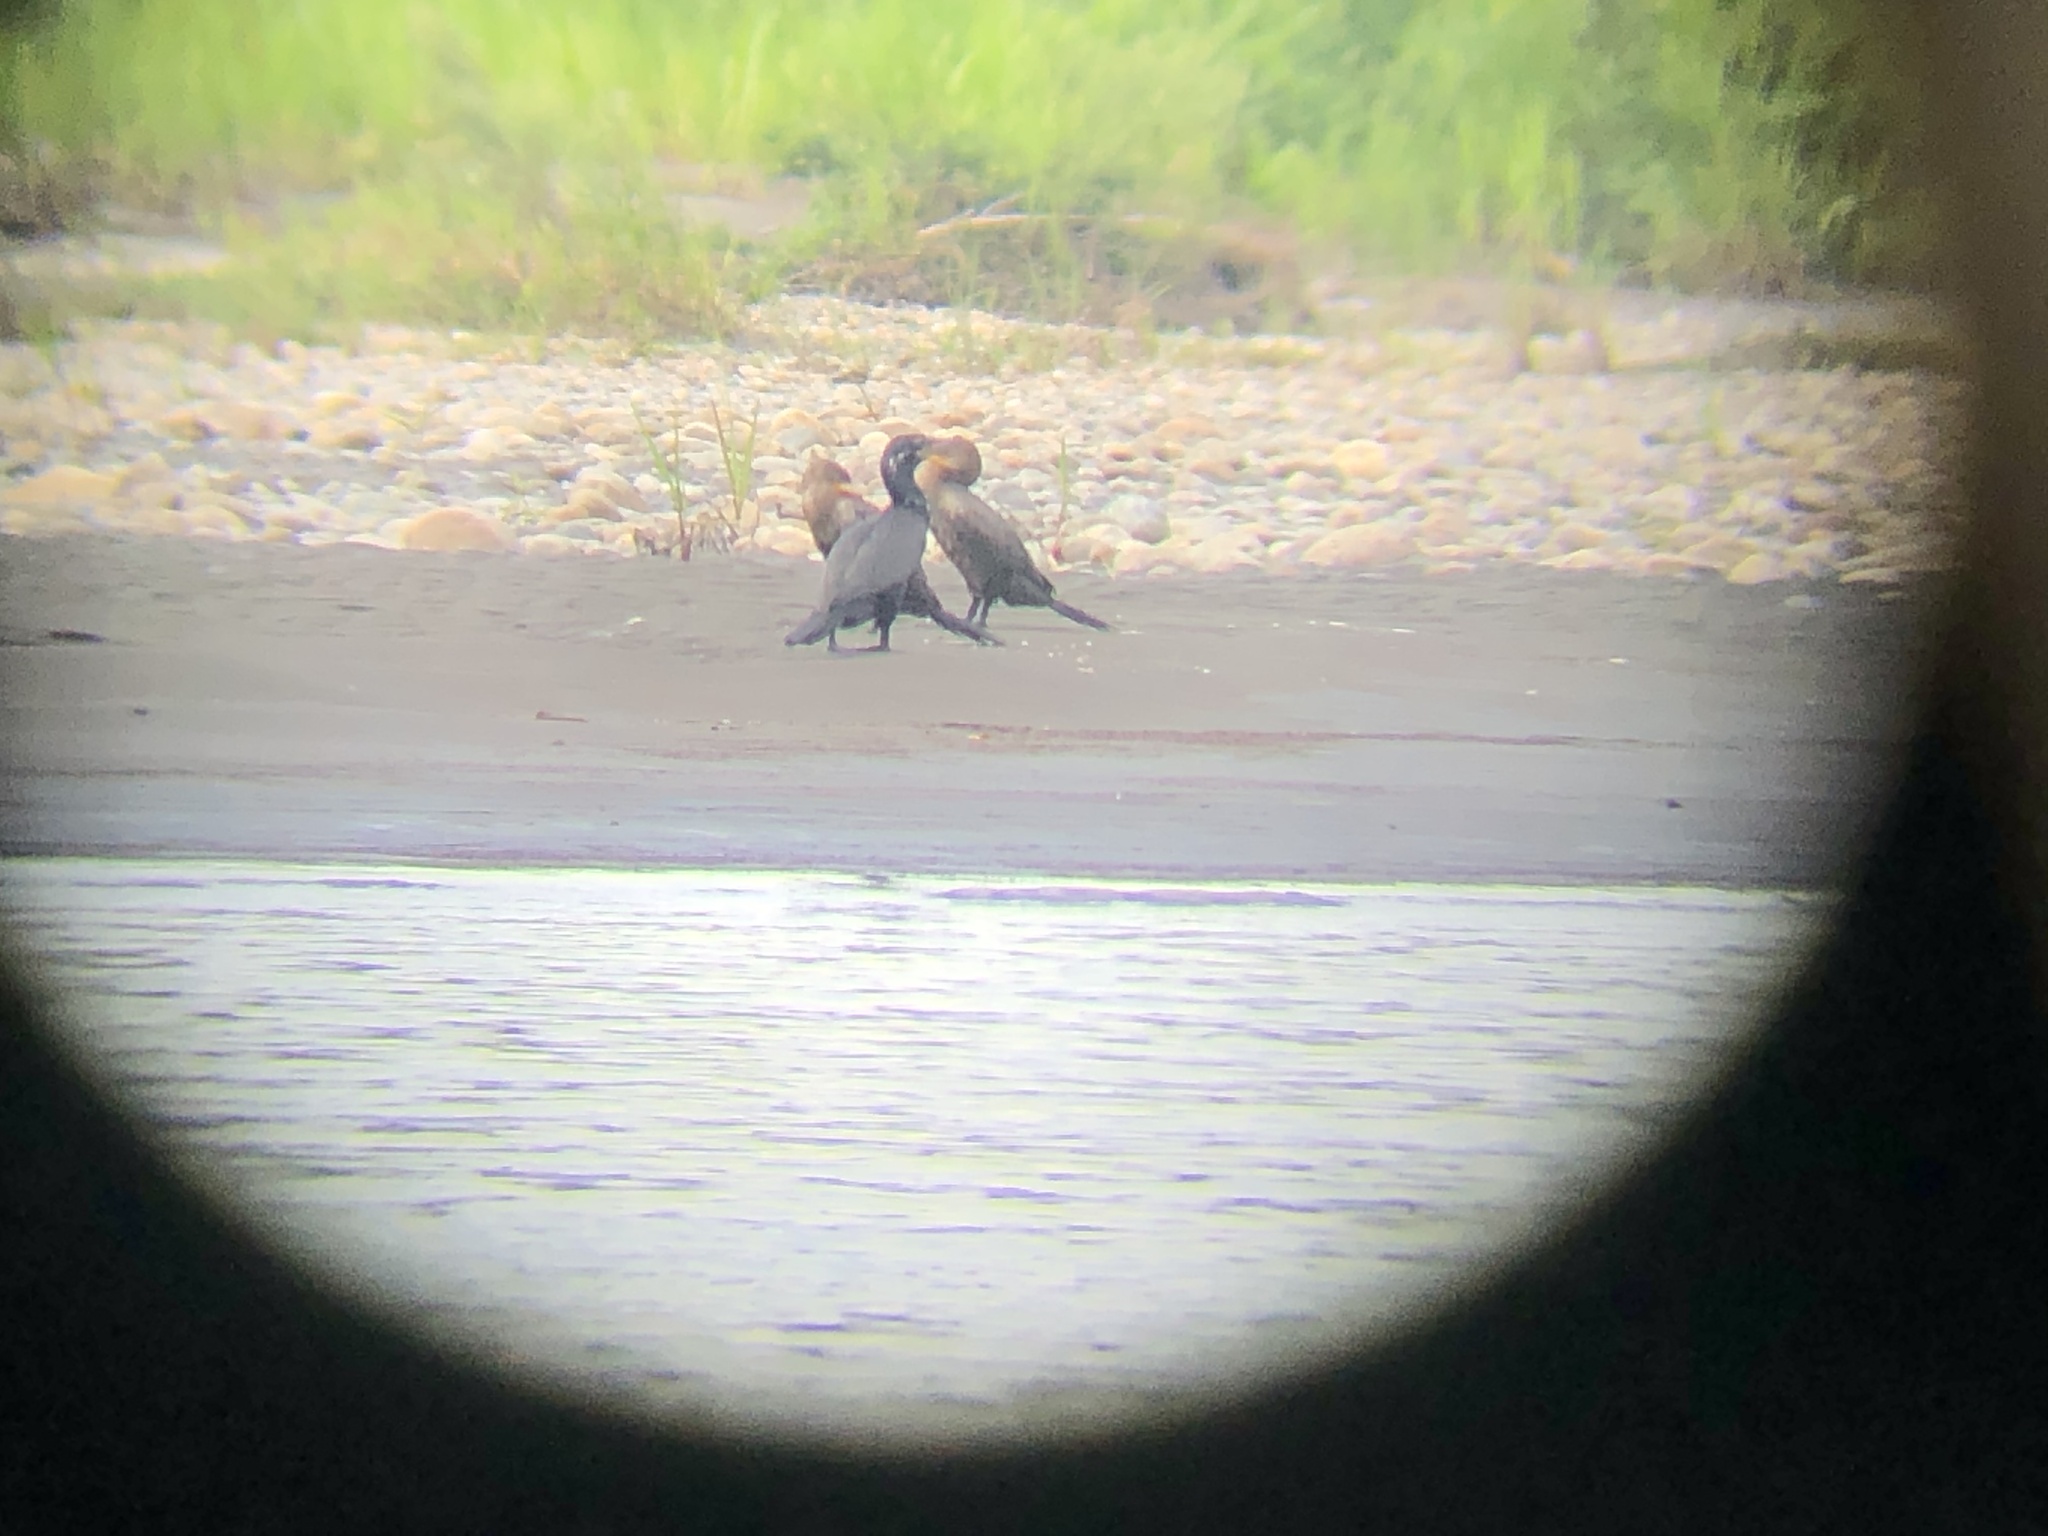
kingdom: Animalia
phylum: Chordata
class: Aves
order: Suliformes
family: Phalacrocoracidae
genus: Phalacrocorax
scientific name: Phalacrocorax brasilianus
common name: Neotropic cormorant
